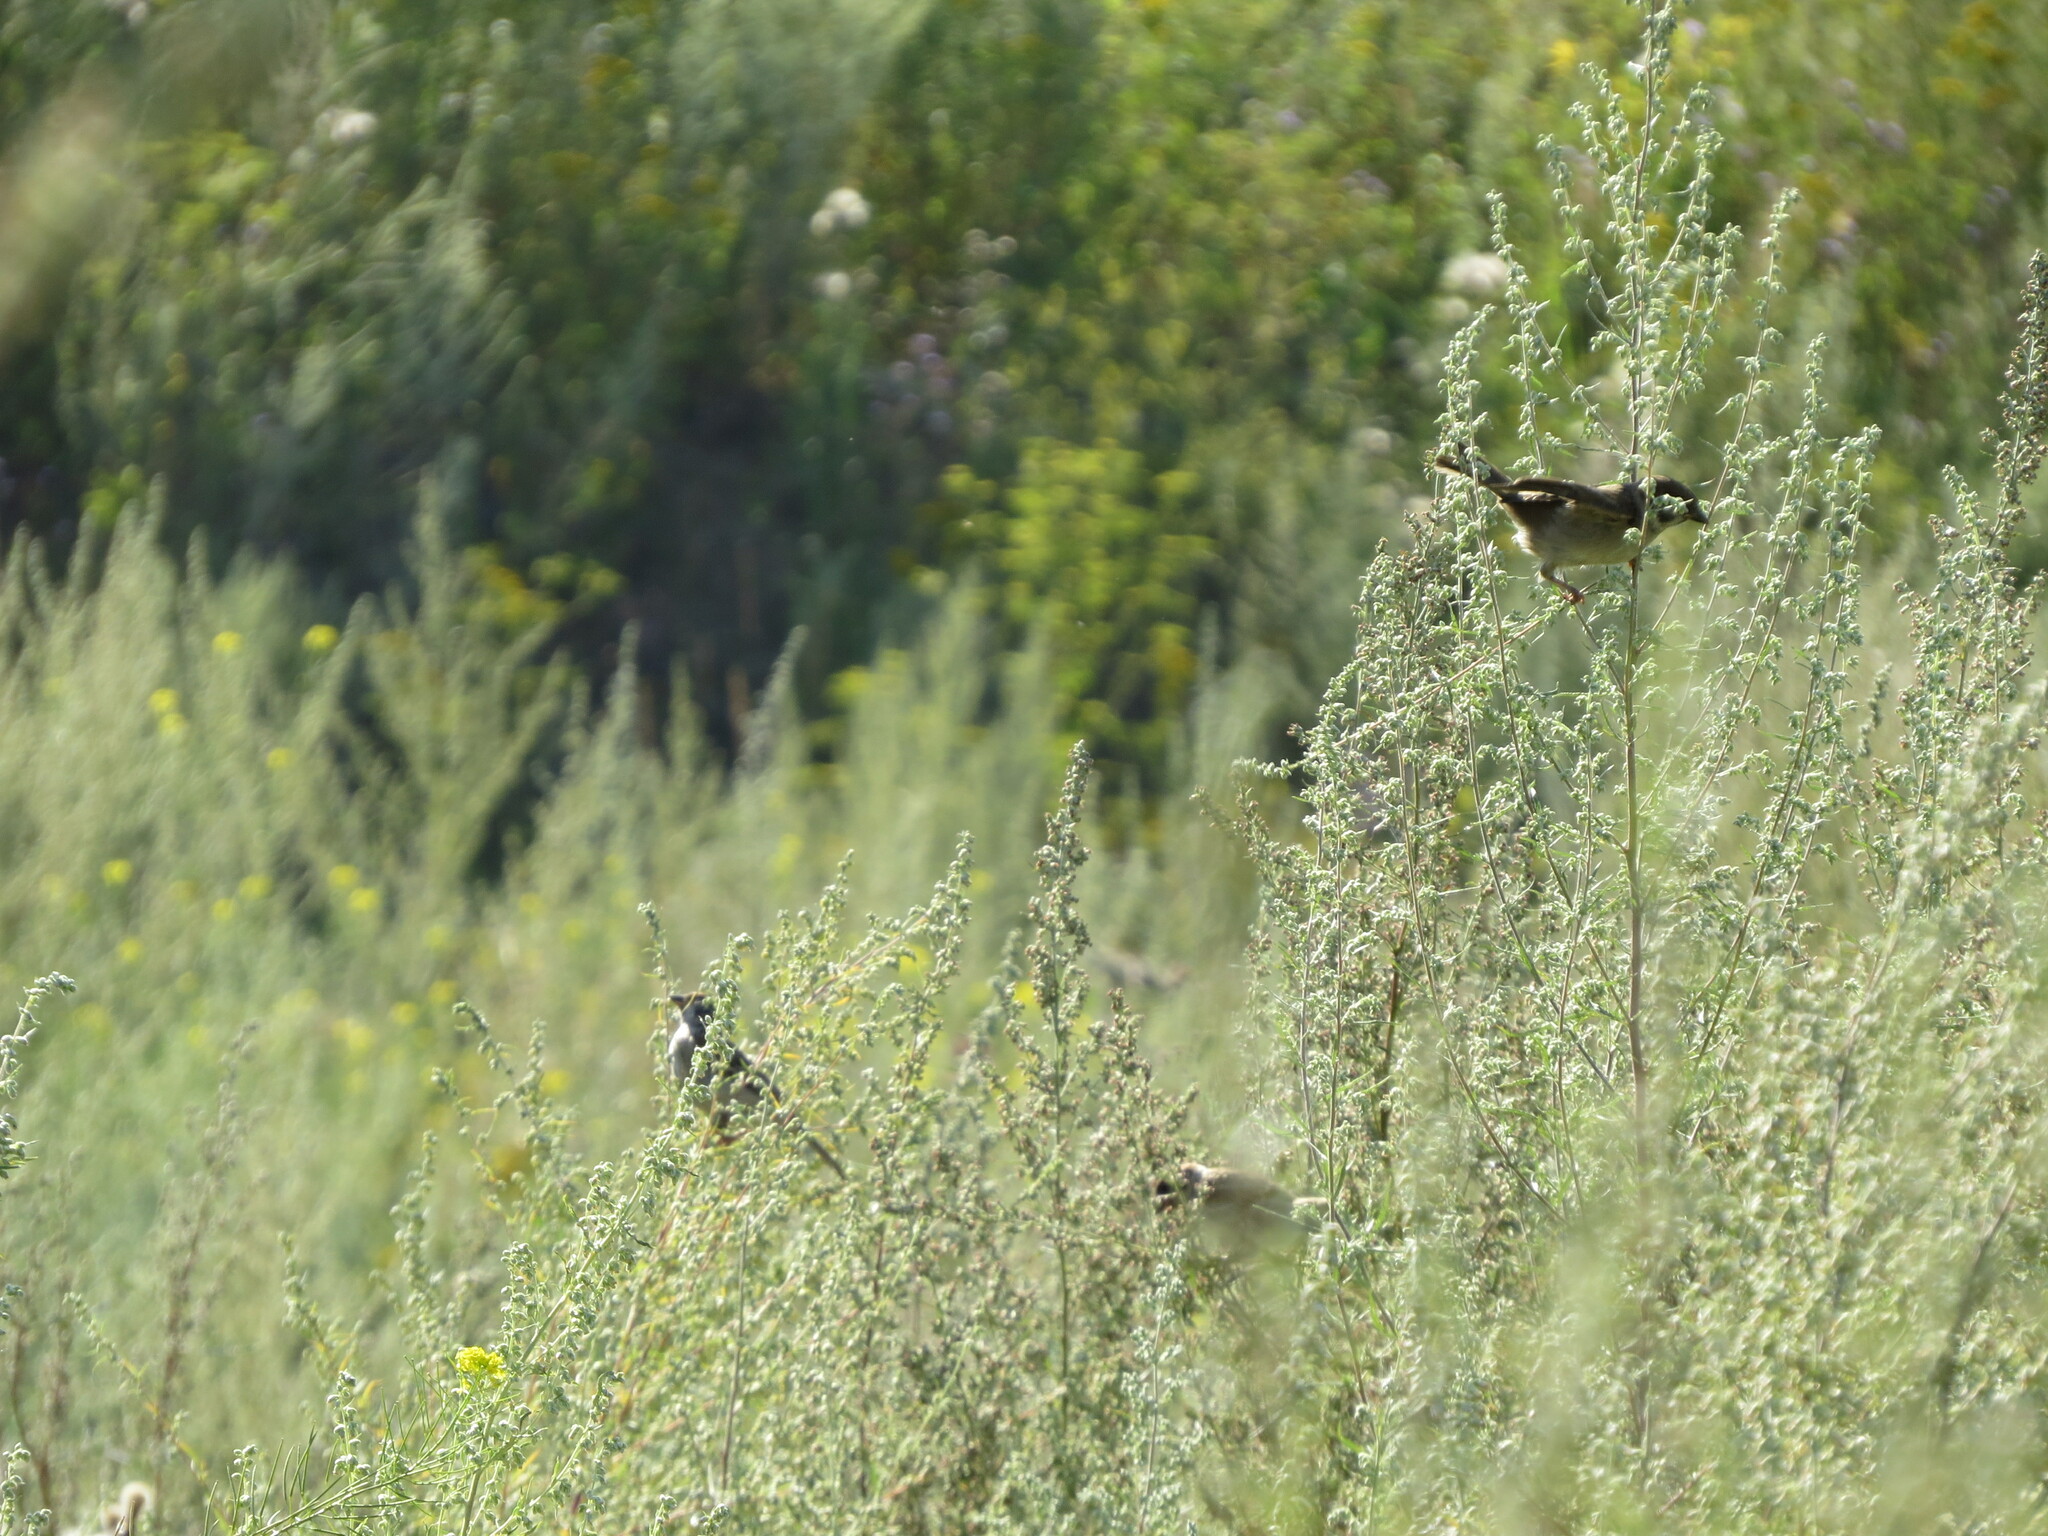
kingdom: Animalia
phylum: Chordata
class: Aves
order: Passeriformes
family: Passeridae
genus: Passer
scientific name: Passer montanus
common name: Eurasian tree sparrow
